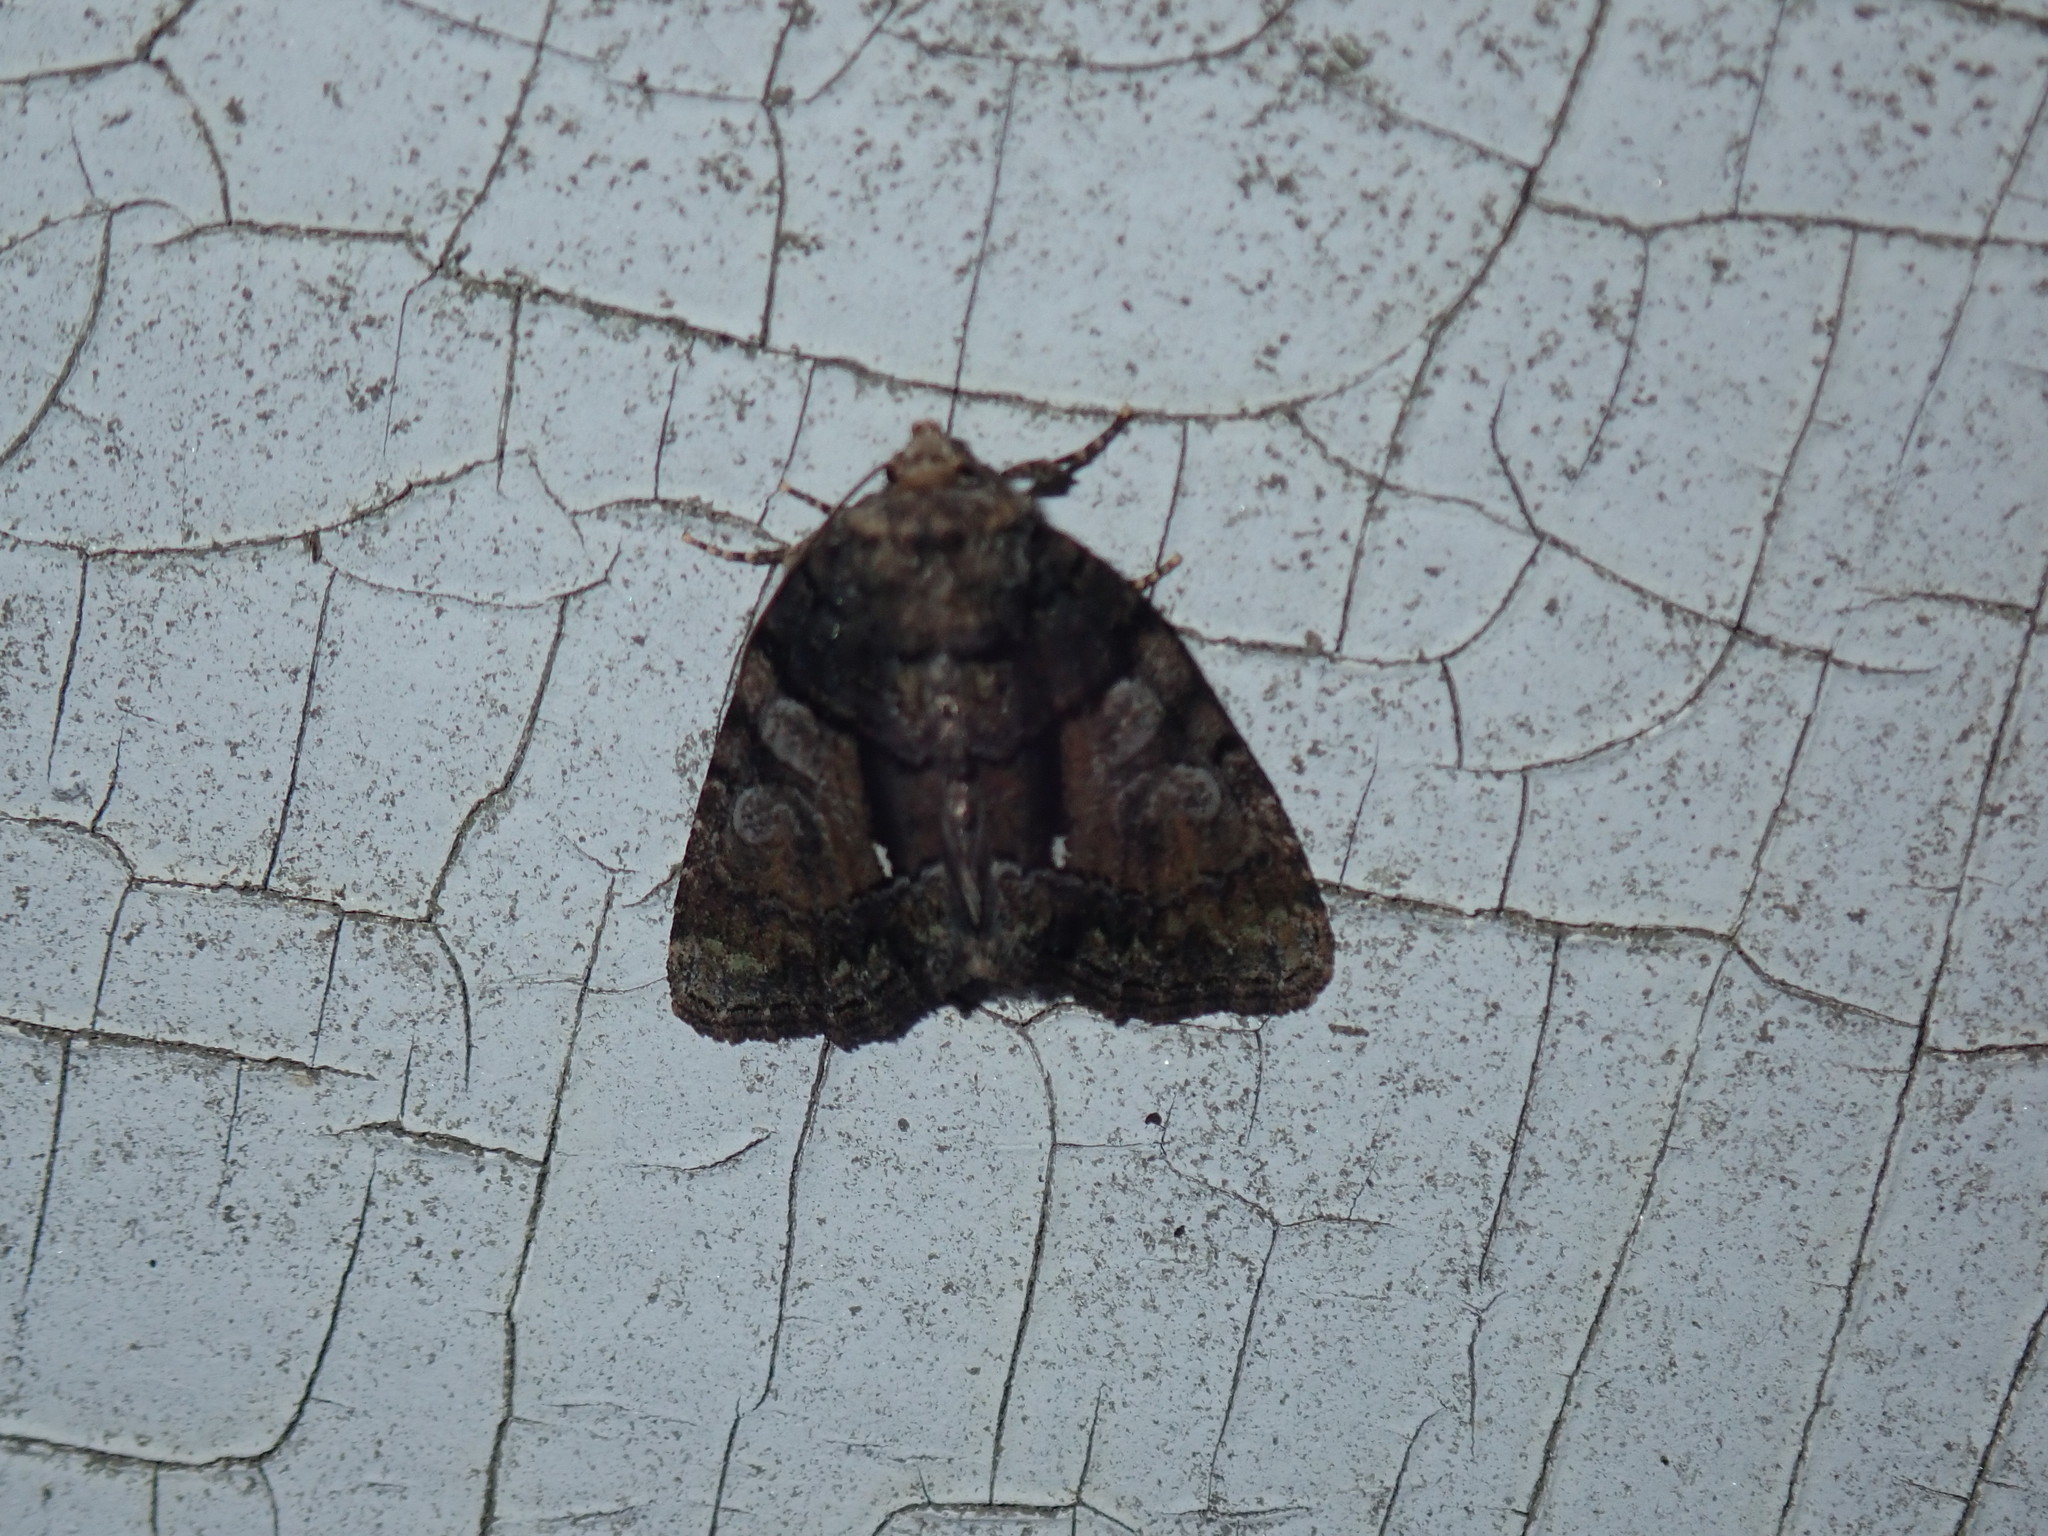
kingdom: Animalia
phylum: Arthropoda
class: Insecta
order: Lepidoptera
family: Noctuidae
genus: Chytonix
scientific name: Chytonix palliatricula
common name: Cloaked marvel
